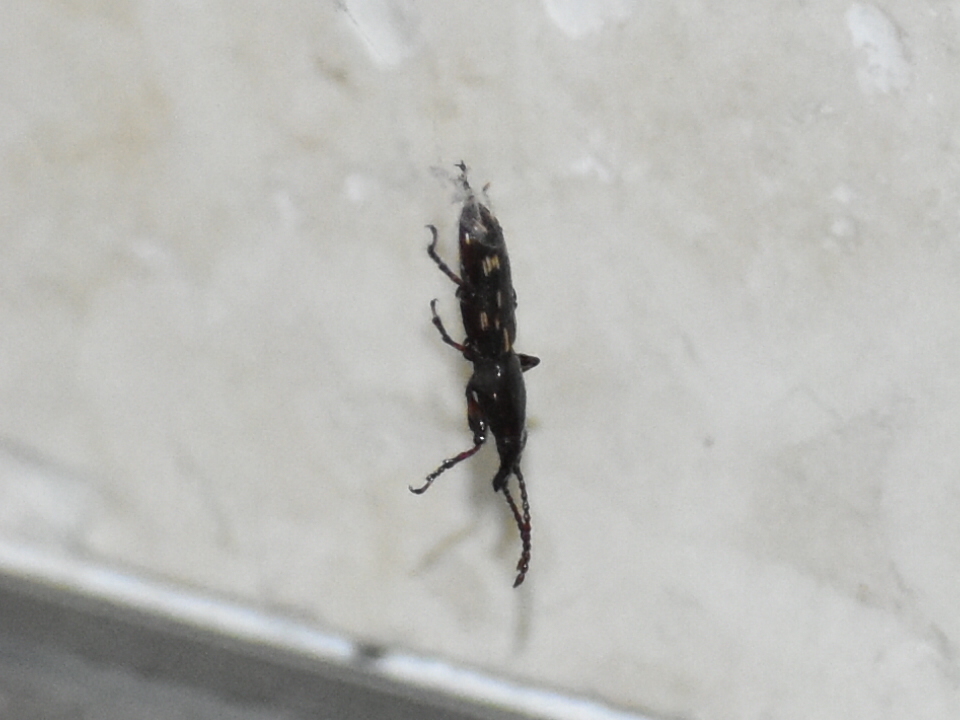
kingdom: Animalia
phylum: Arthropoda
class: Insecta
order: Coleoptera
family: Brentidae
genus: Arrenodes
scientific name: Arrenodes minutus
